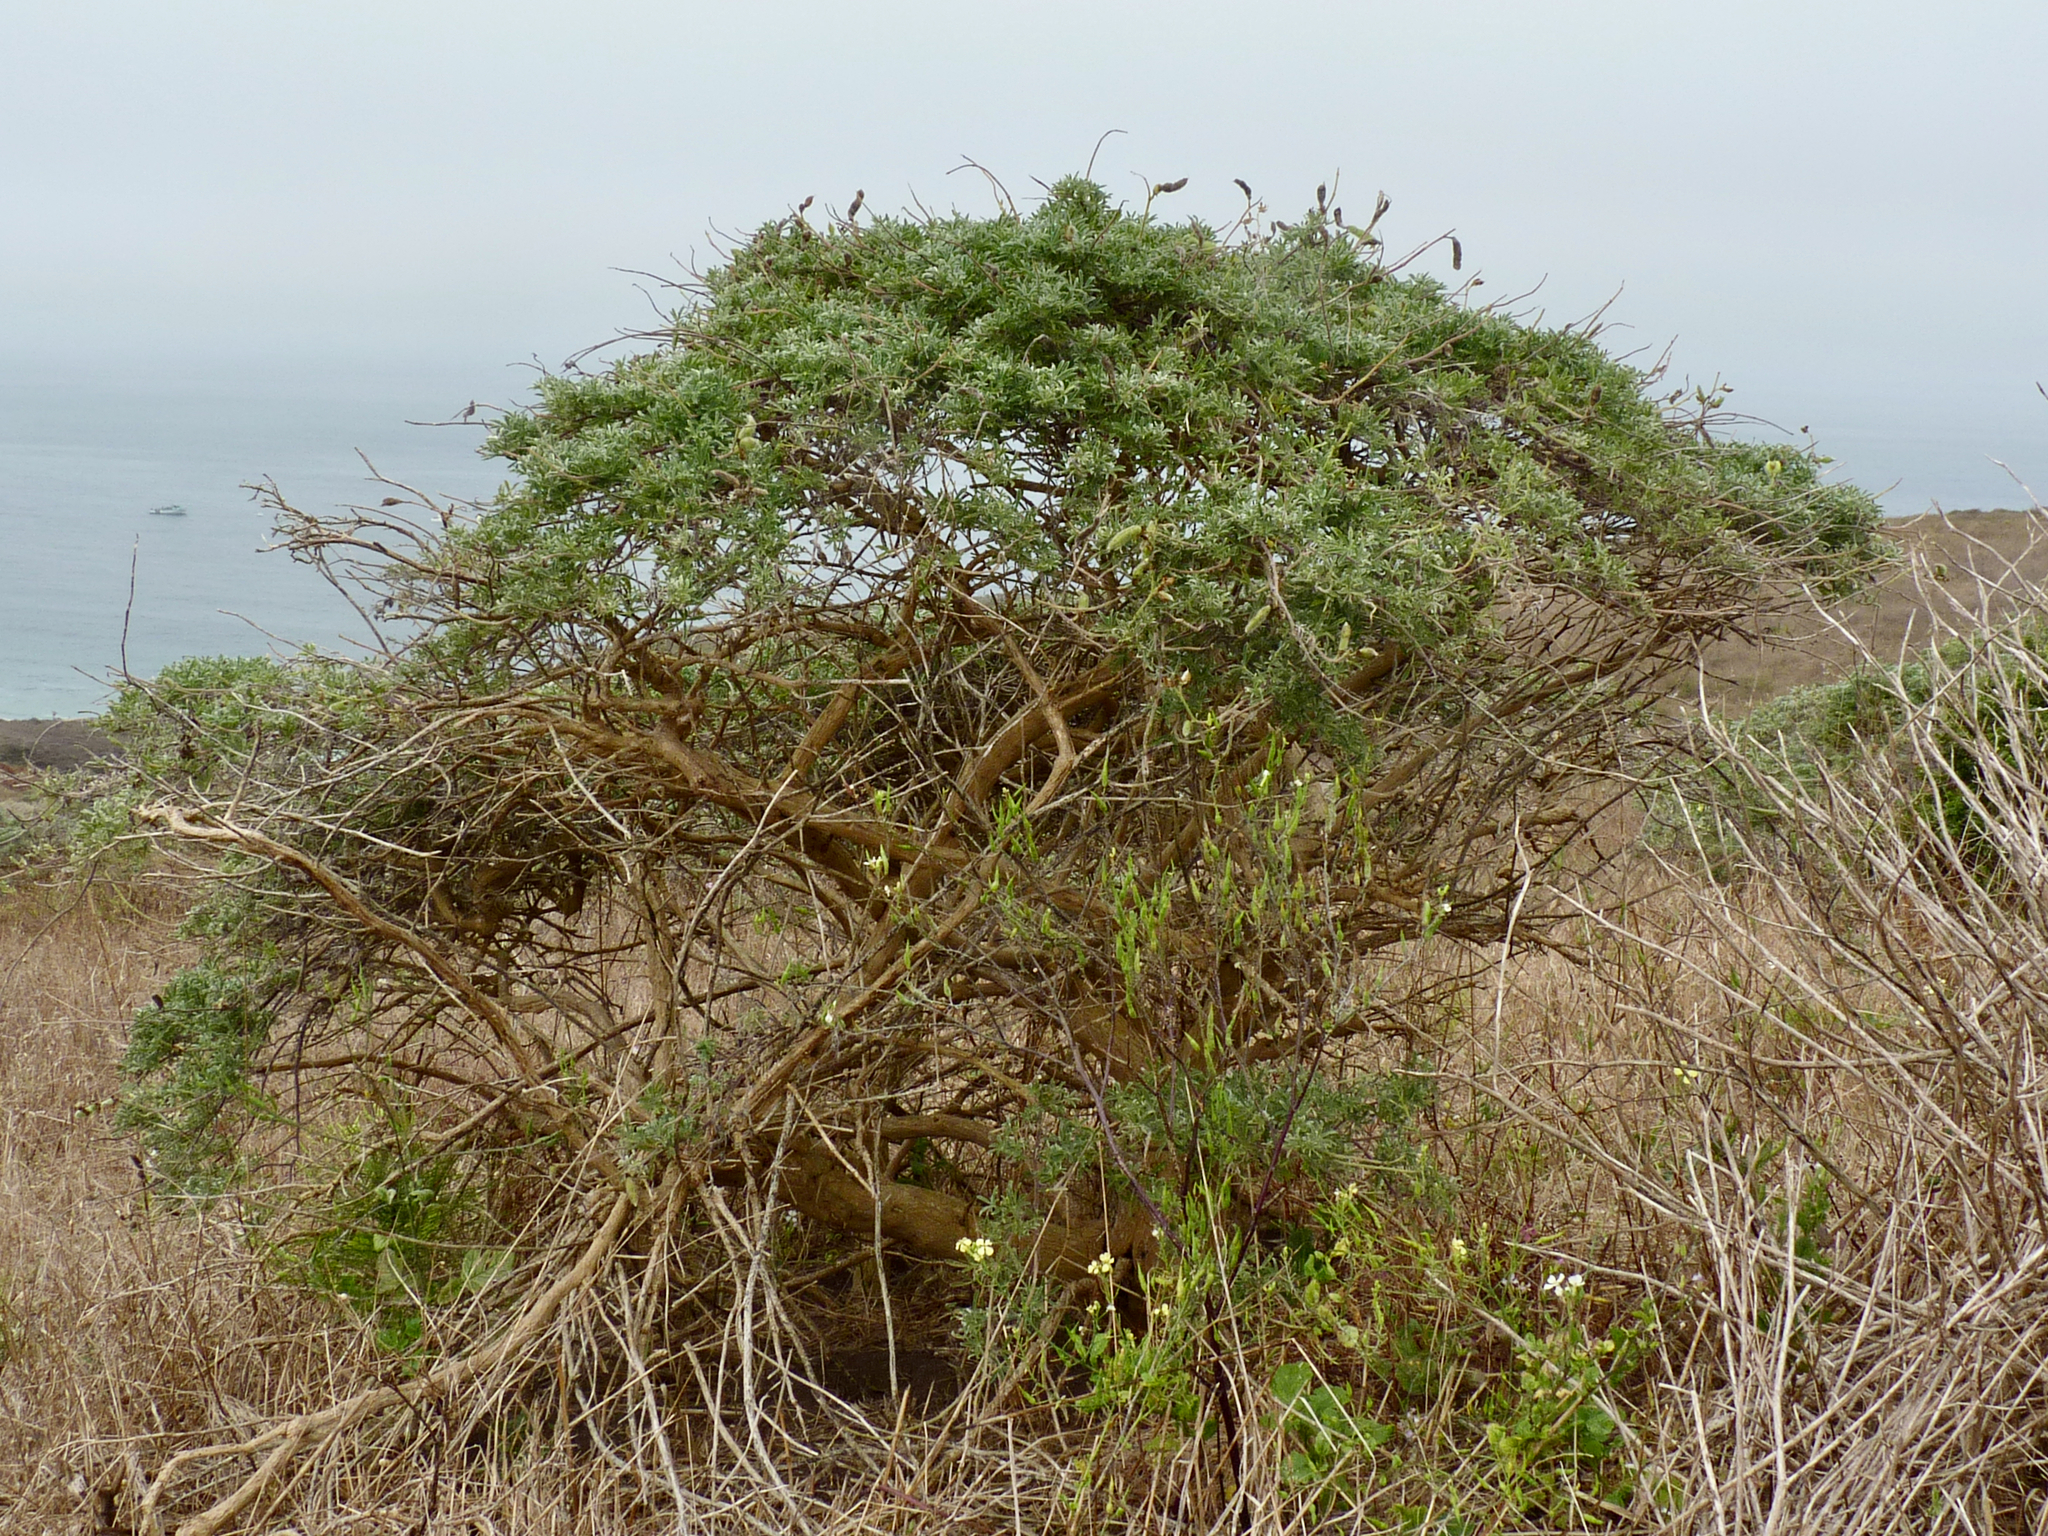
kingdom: Plantae
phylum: Tracheophyta
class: Magnoliopsida
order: Fabales
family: Fabaceae
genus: Lupinus
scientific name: Lupinus arboreus
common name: Yellow bush lupine
